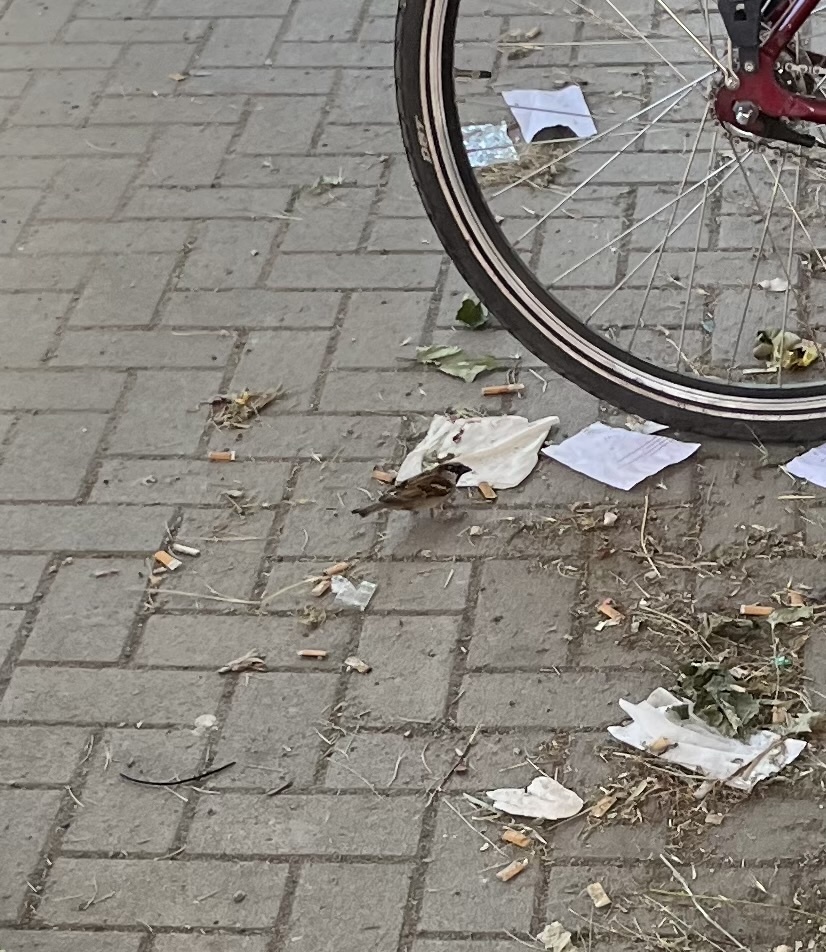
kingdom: Animalia
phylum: Chordata
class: Aves
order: Passeriformes
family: Passeridae
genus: Passer
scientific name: Passer domesticus
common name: House sparrow
